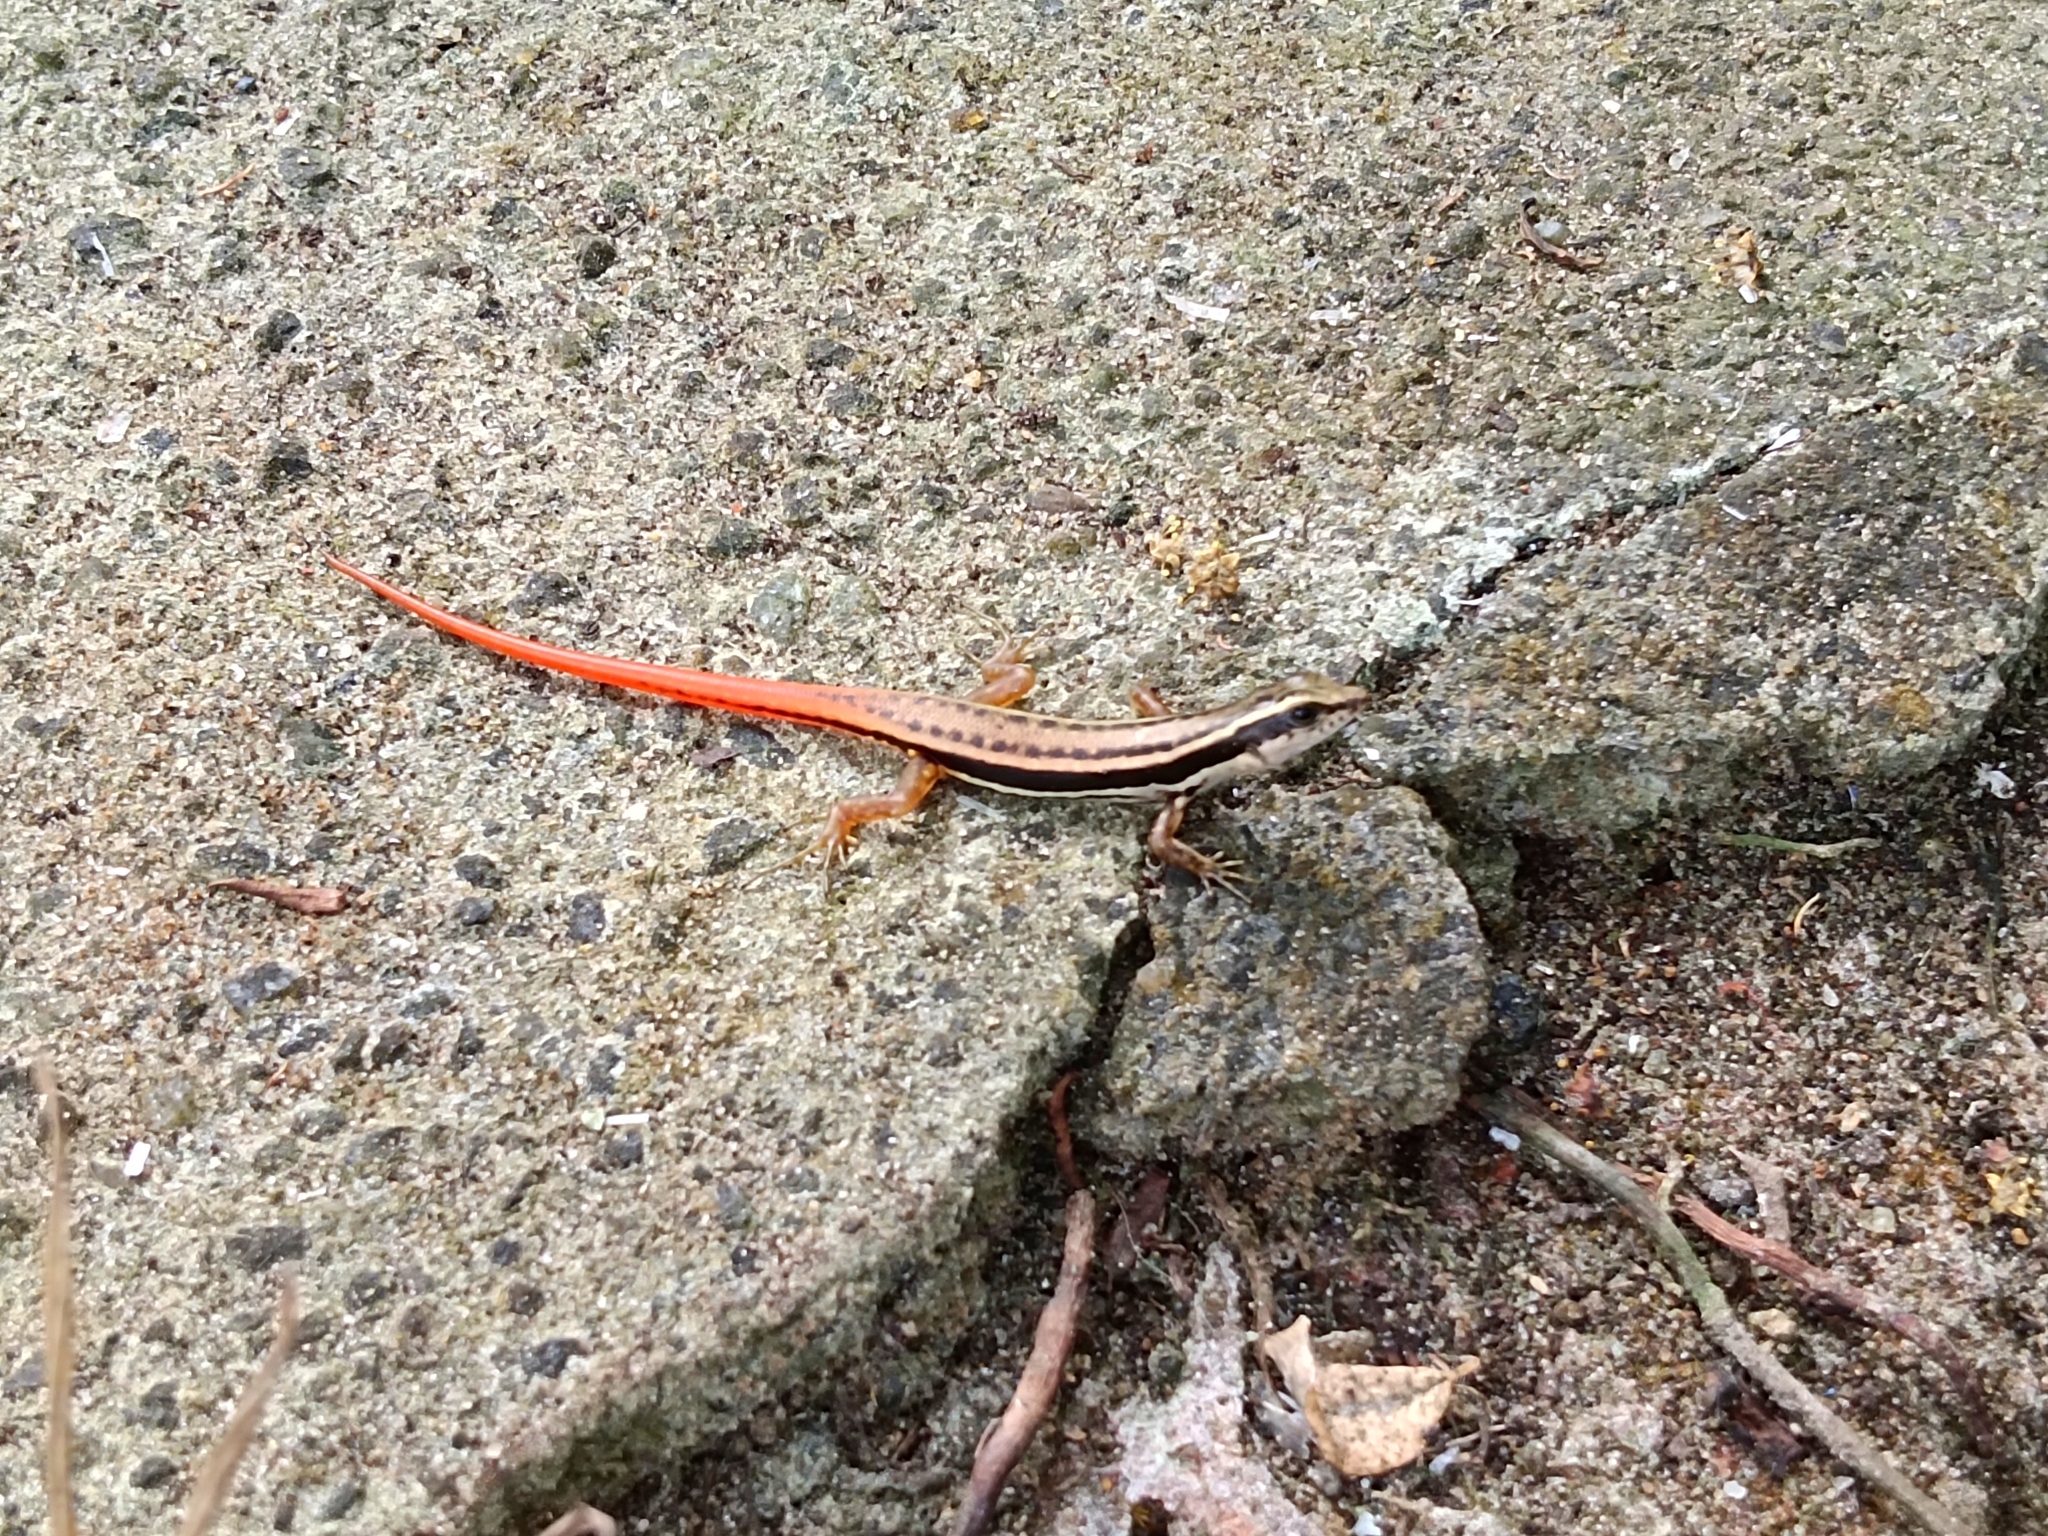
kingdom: Animalia
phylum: Chordata
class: Squamata
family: Scincidae
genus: Sphenomorphus
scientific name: Sphenomorphus dussumieri
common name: Dussumier's forest skink
